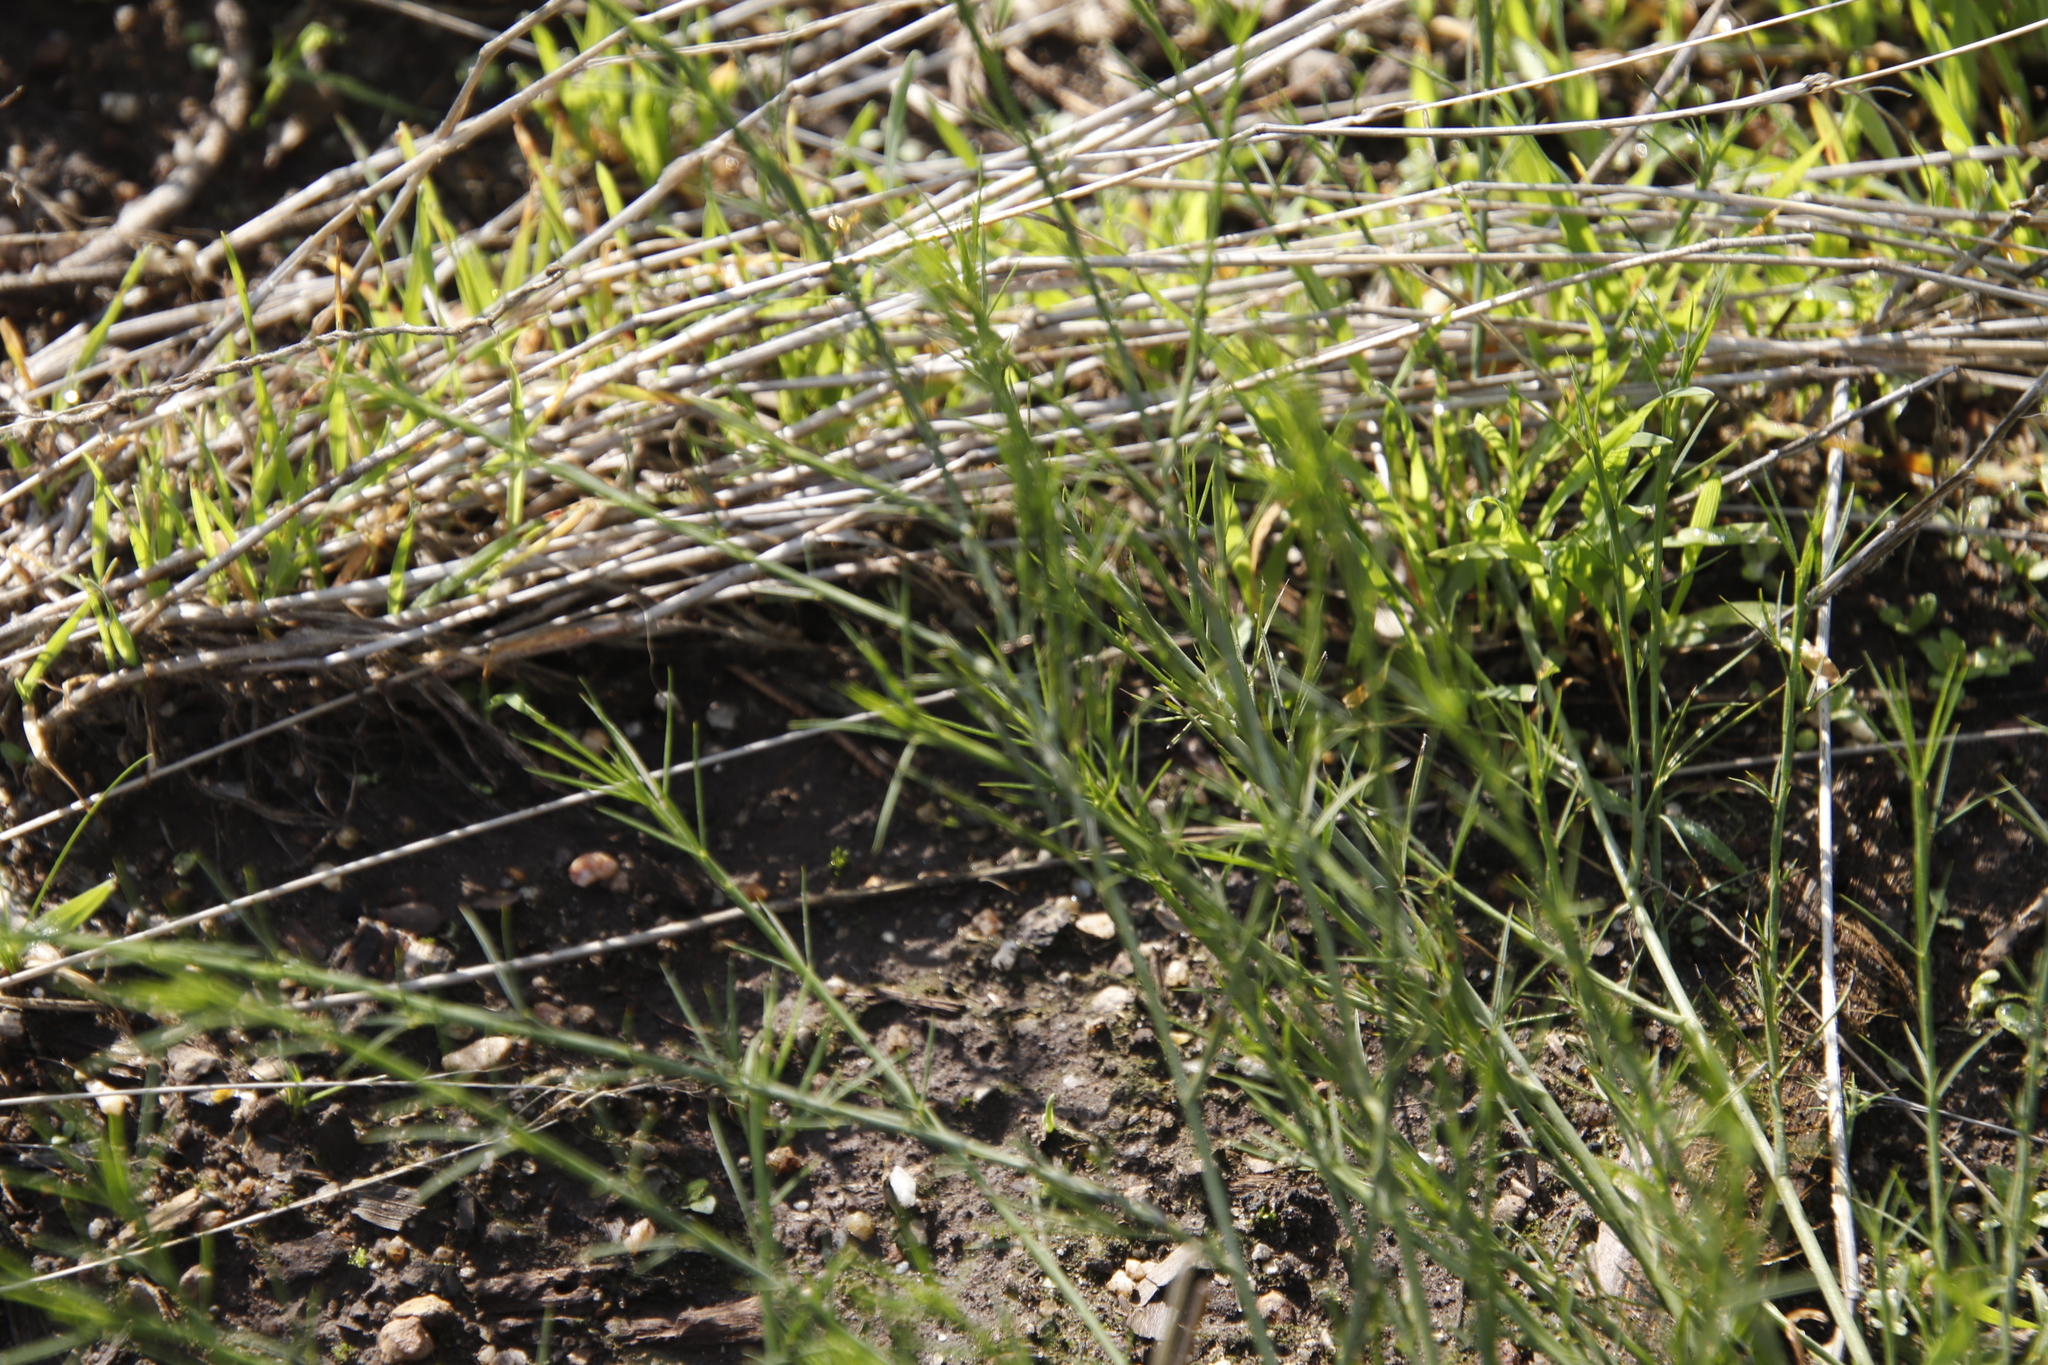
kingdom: Plantae
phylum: Tracheophyta
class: Magnoliopsida
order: Fabales
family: Fabaceae
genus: Psoralea
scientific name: Psoralea fascicularis
